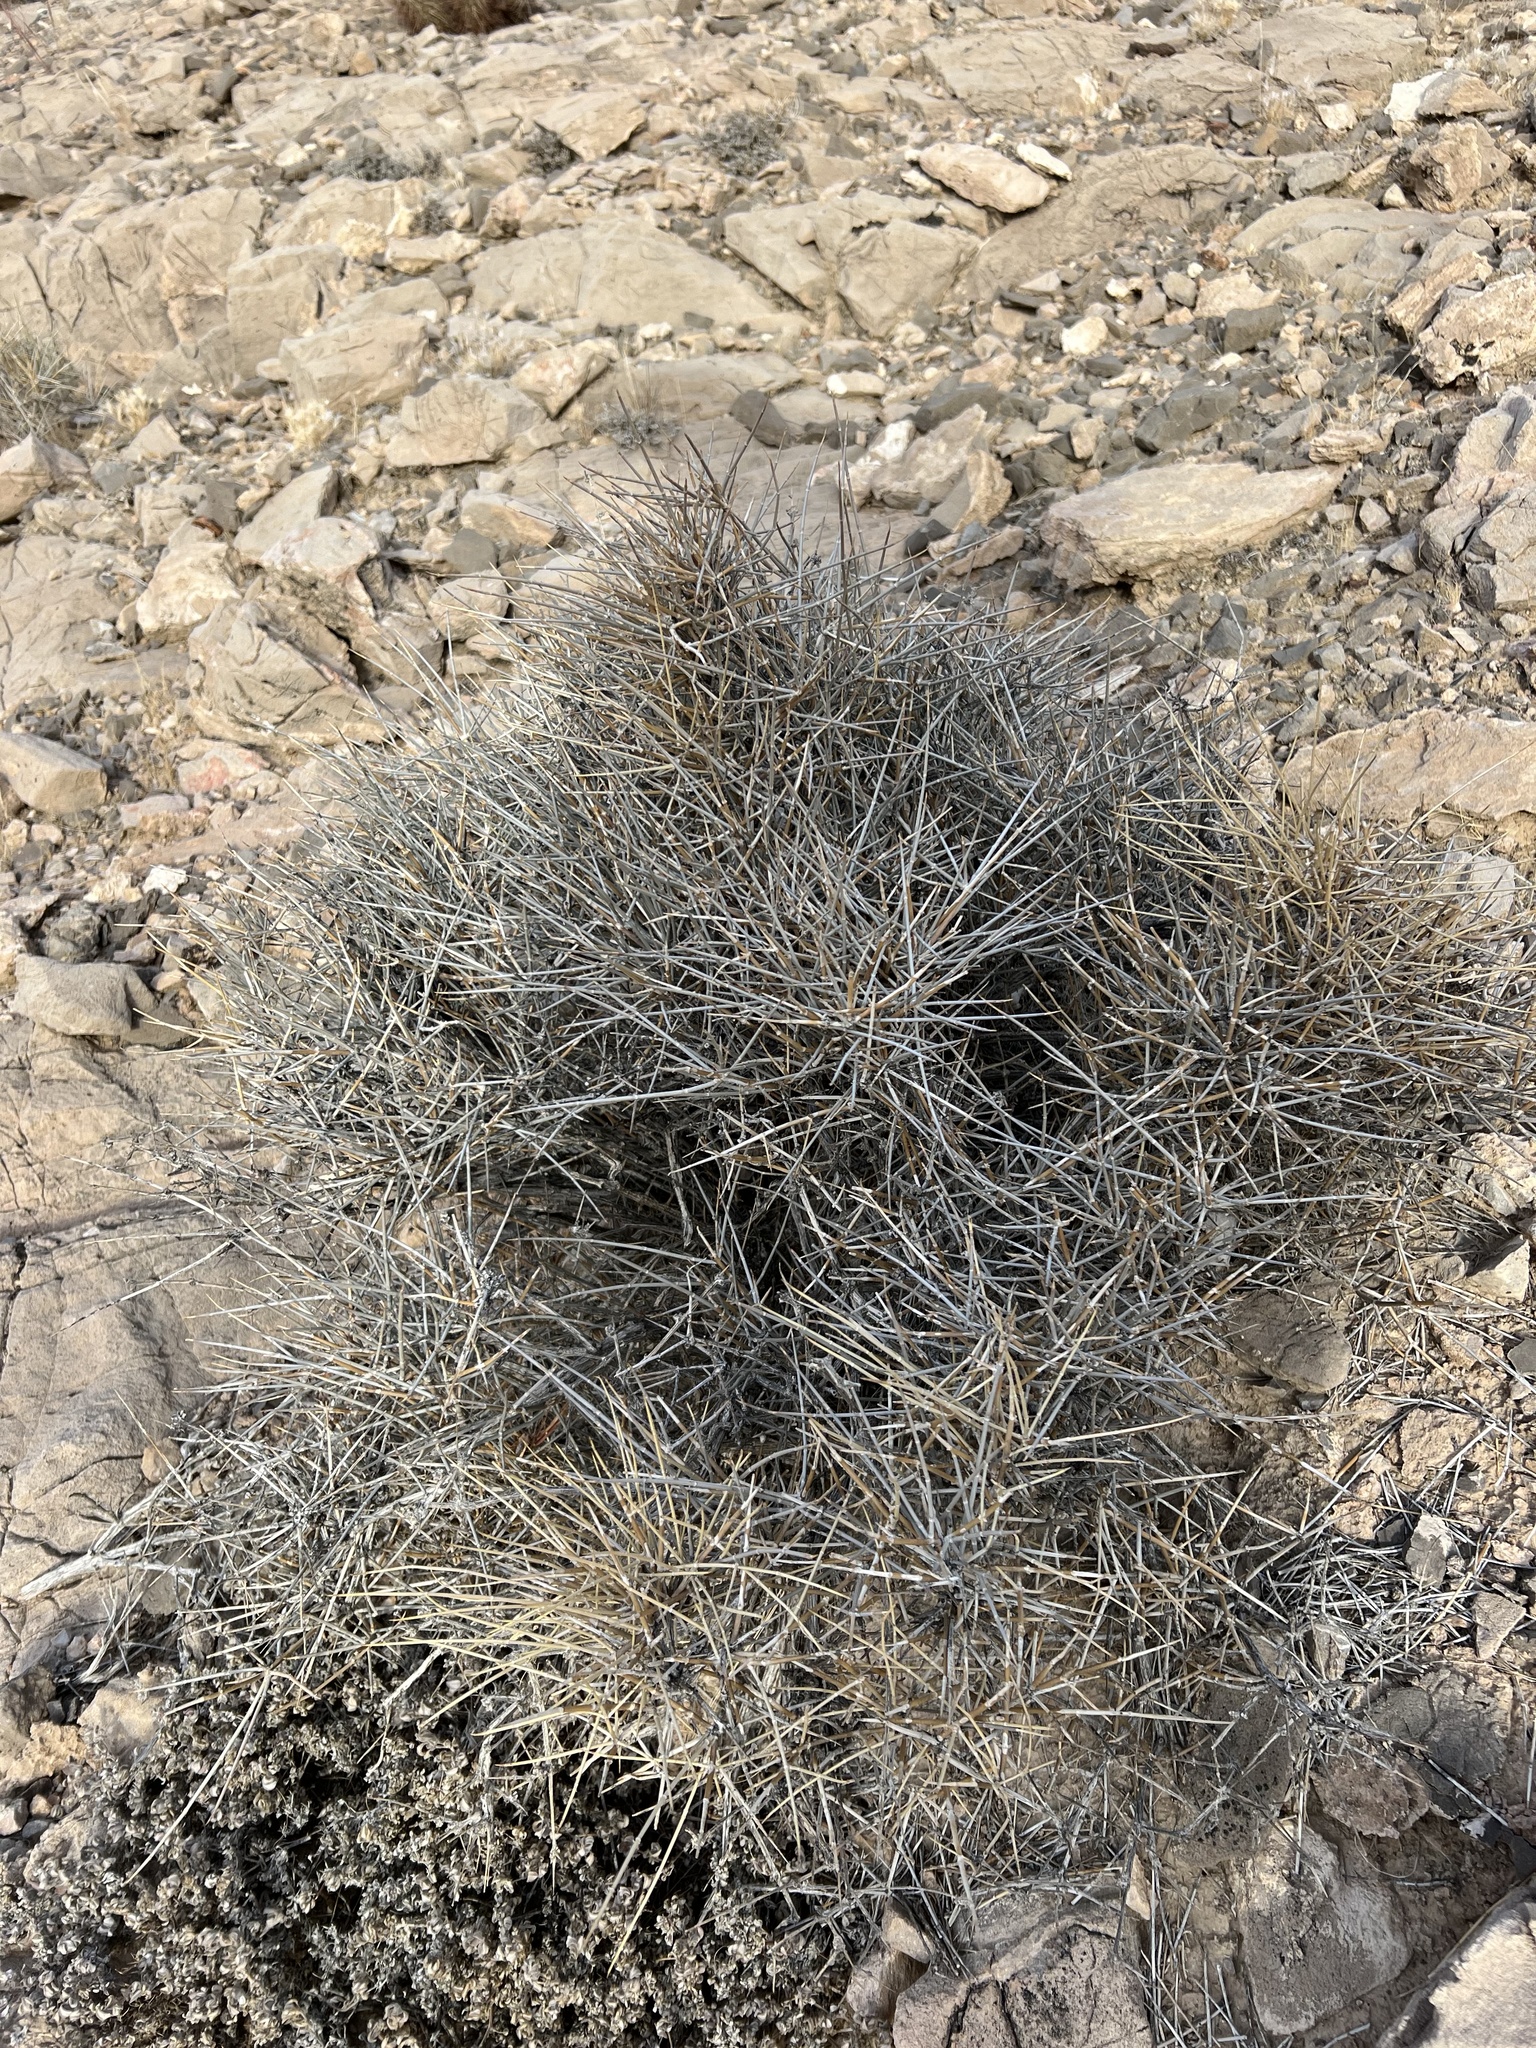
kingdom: Plantae
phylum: Tracheophyta
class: Gnetopsida
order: Ephedrales
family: Ephedraceae
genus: Ephedra
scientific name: Ephedra nevadensis
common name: Gray ephedra
